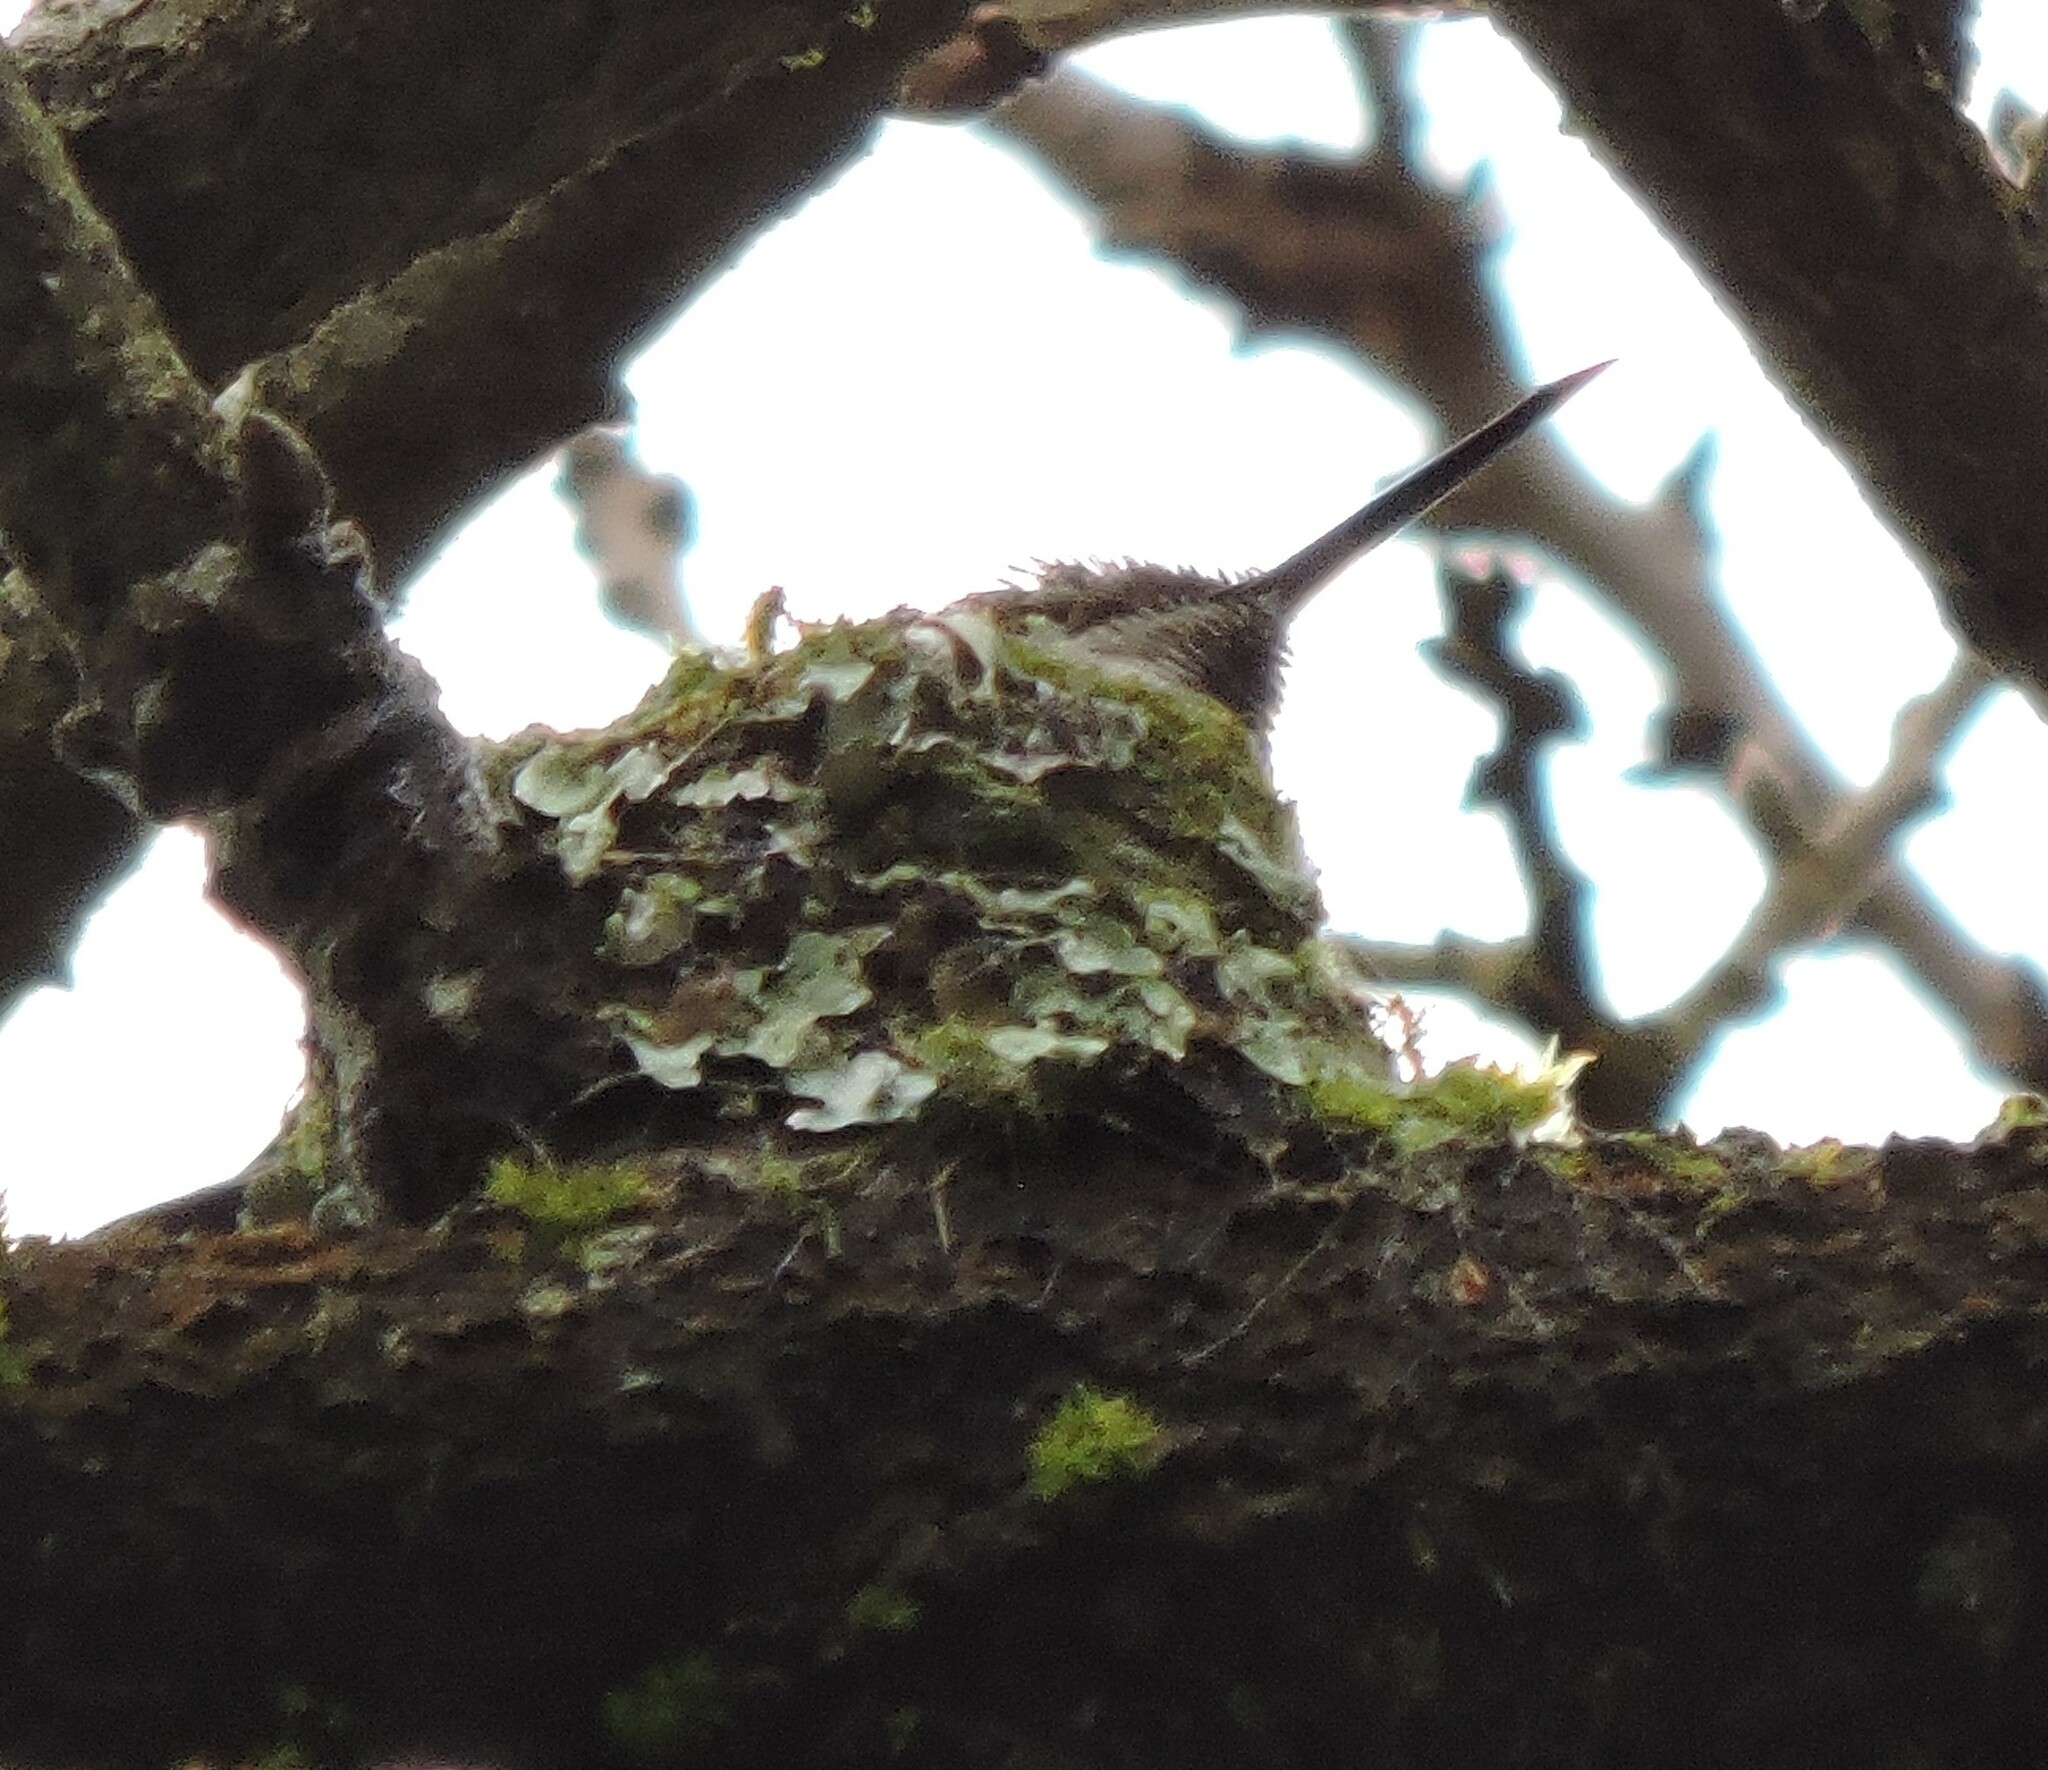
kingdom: Animalia
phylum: Chordata
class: Aves
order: Apodiformes
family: Trochilidae
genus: Calypte
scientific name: Calypte anna
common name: Anna's hummingbird
